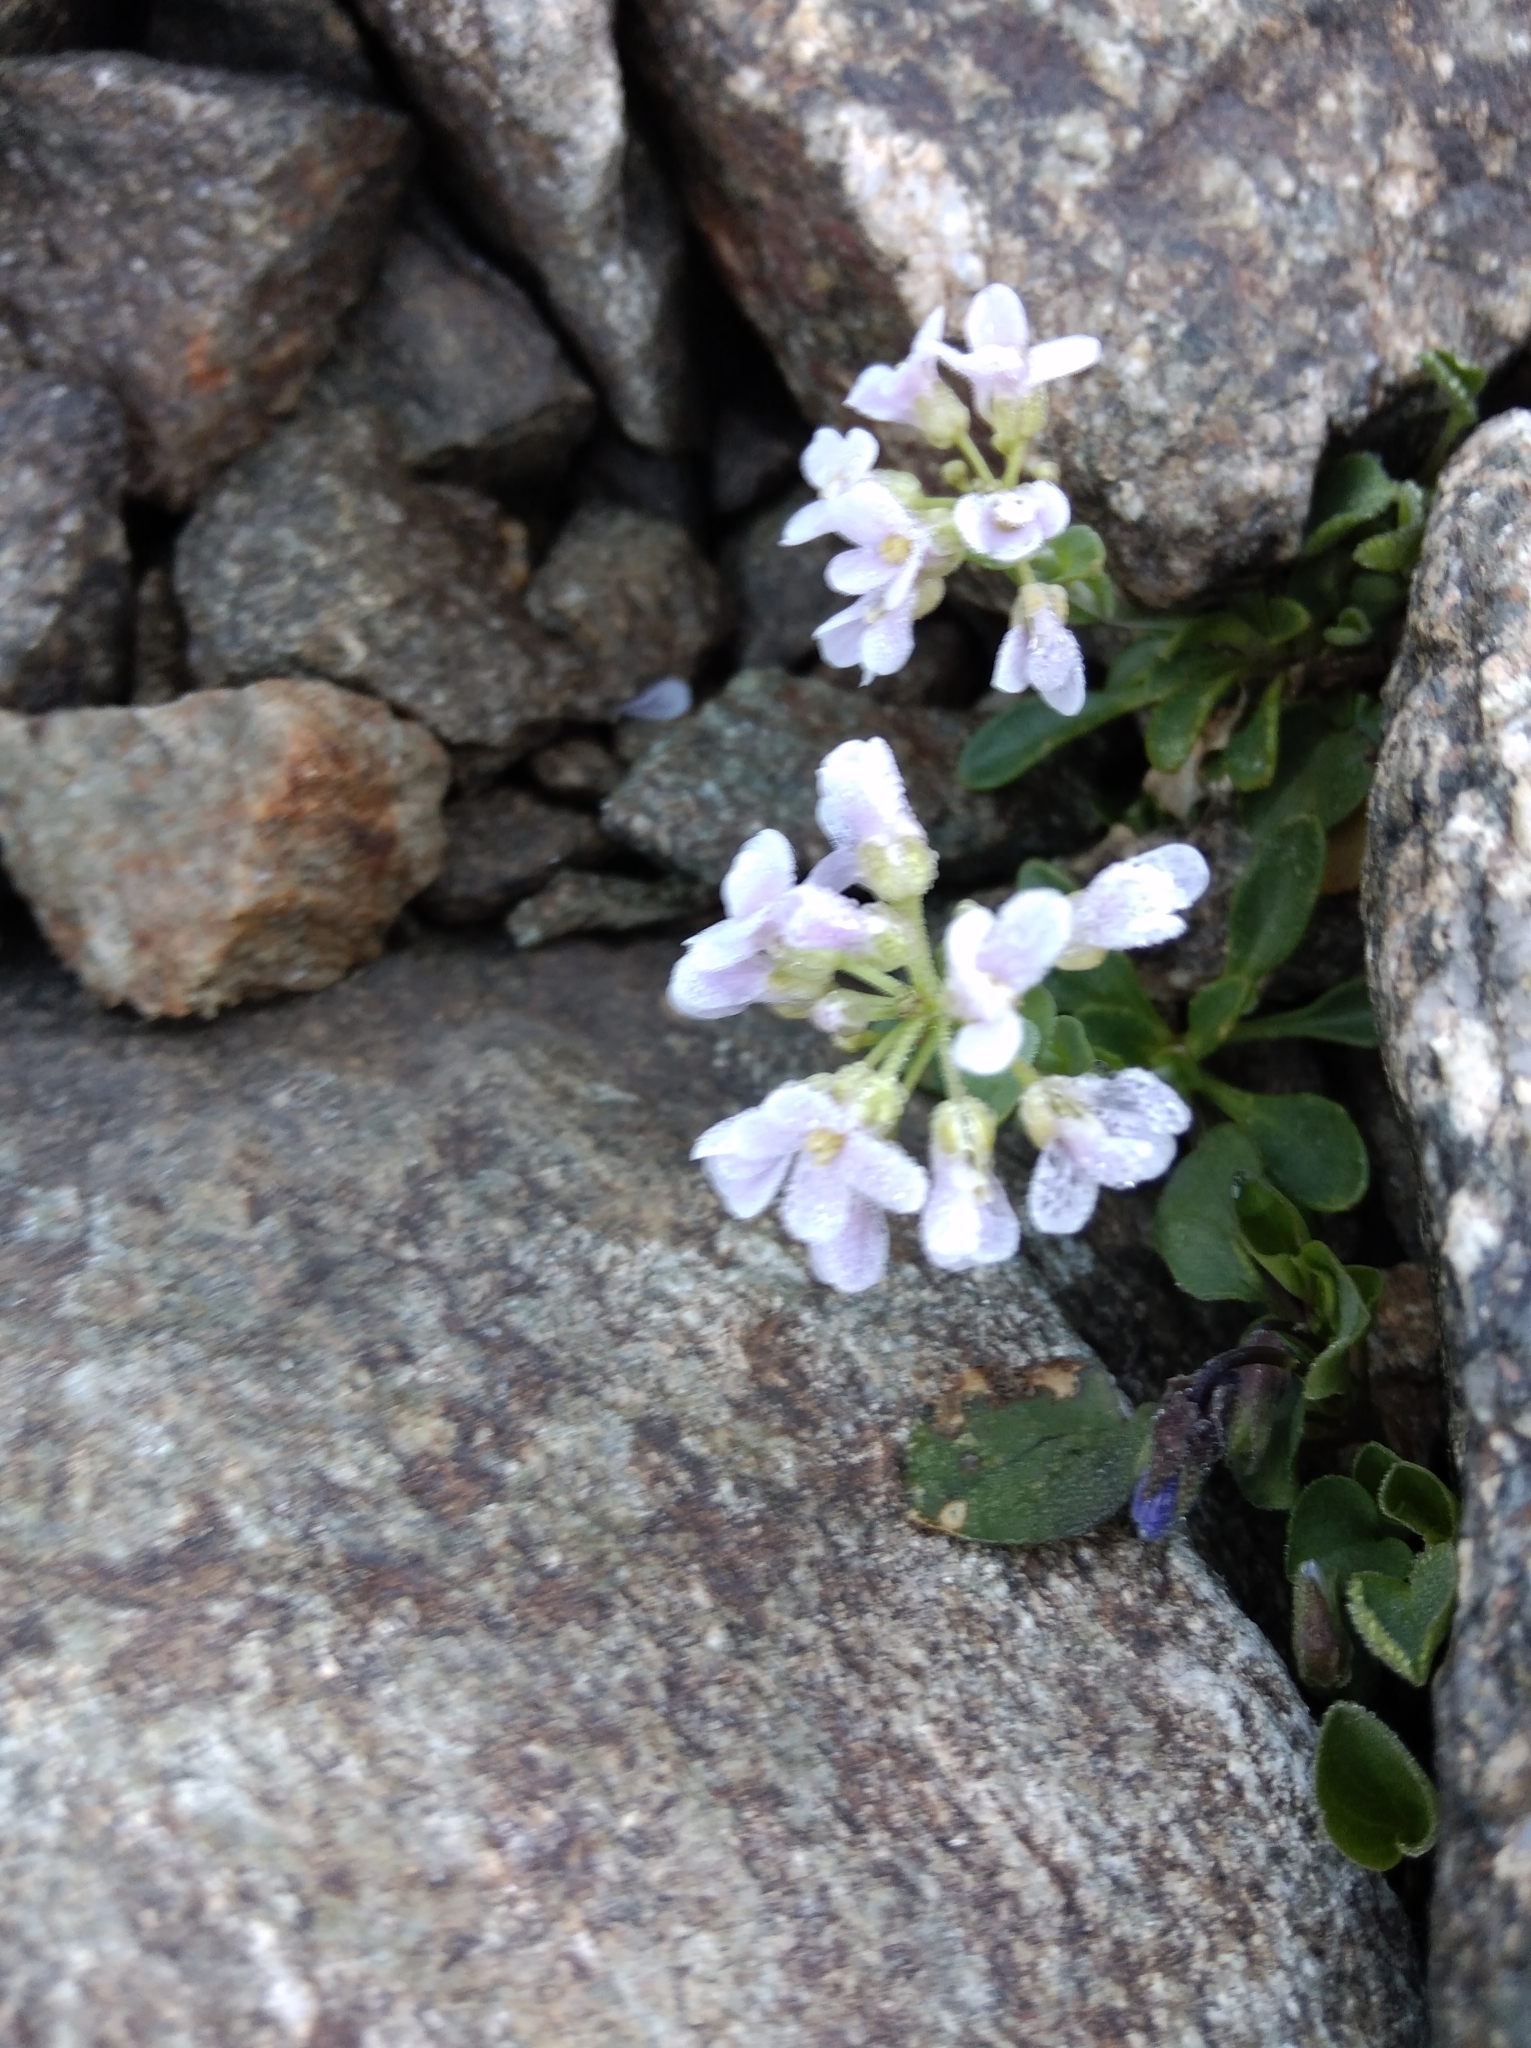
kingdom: Plantae
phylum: Tracheophyta
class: Magnoliopsida
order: Brassicales
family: Brassicaceae
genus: Noccaea
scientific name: Noccaea rotundifolia
